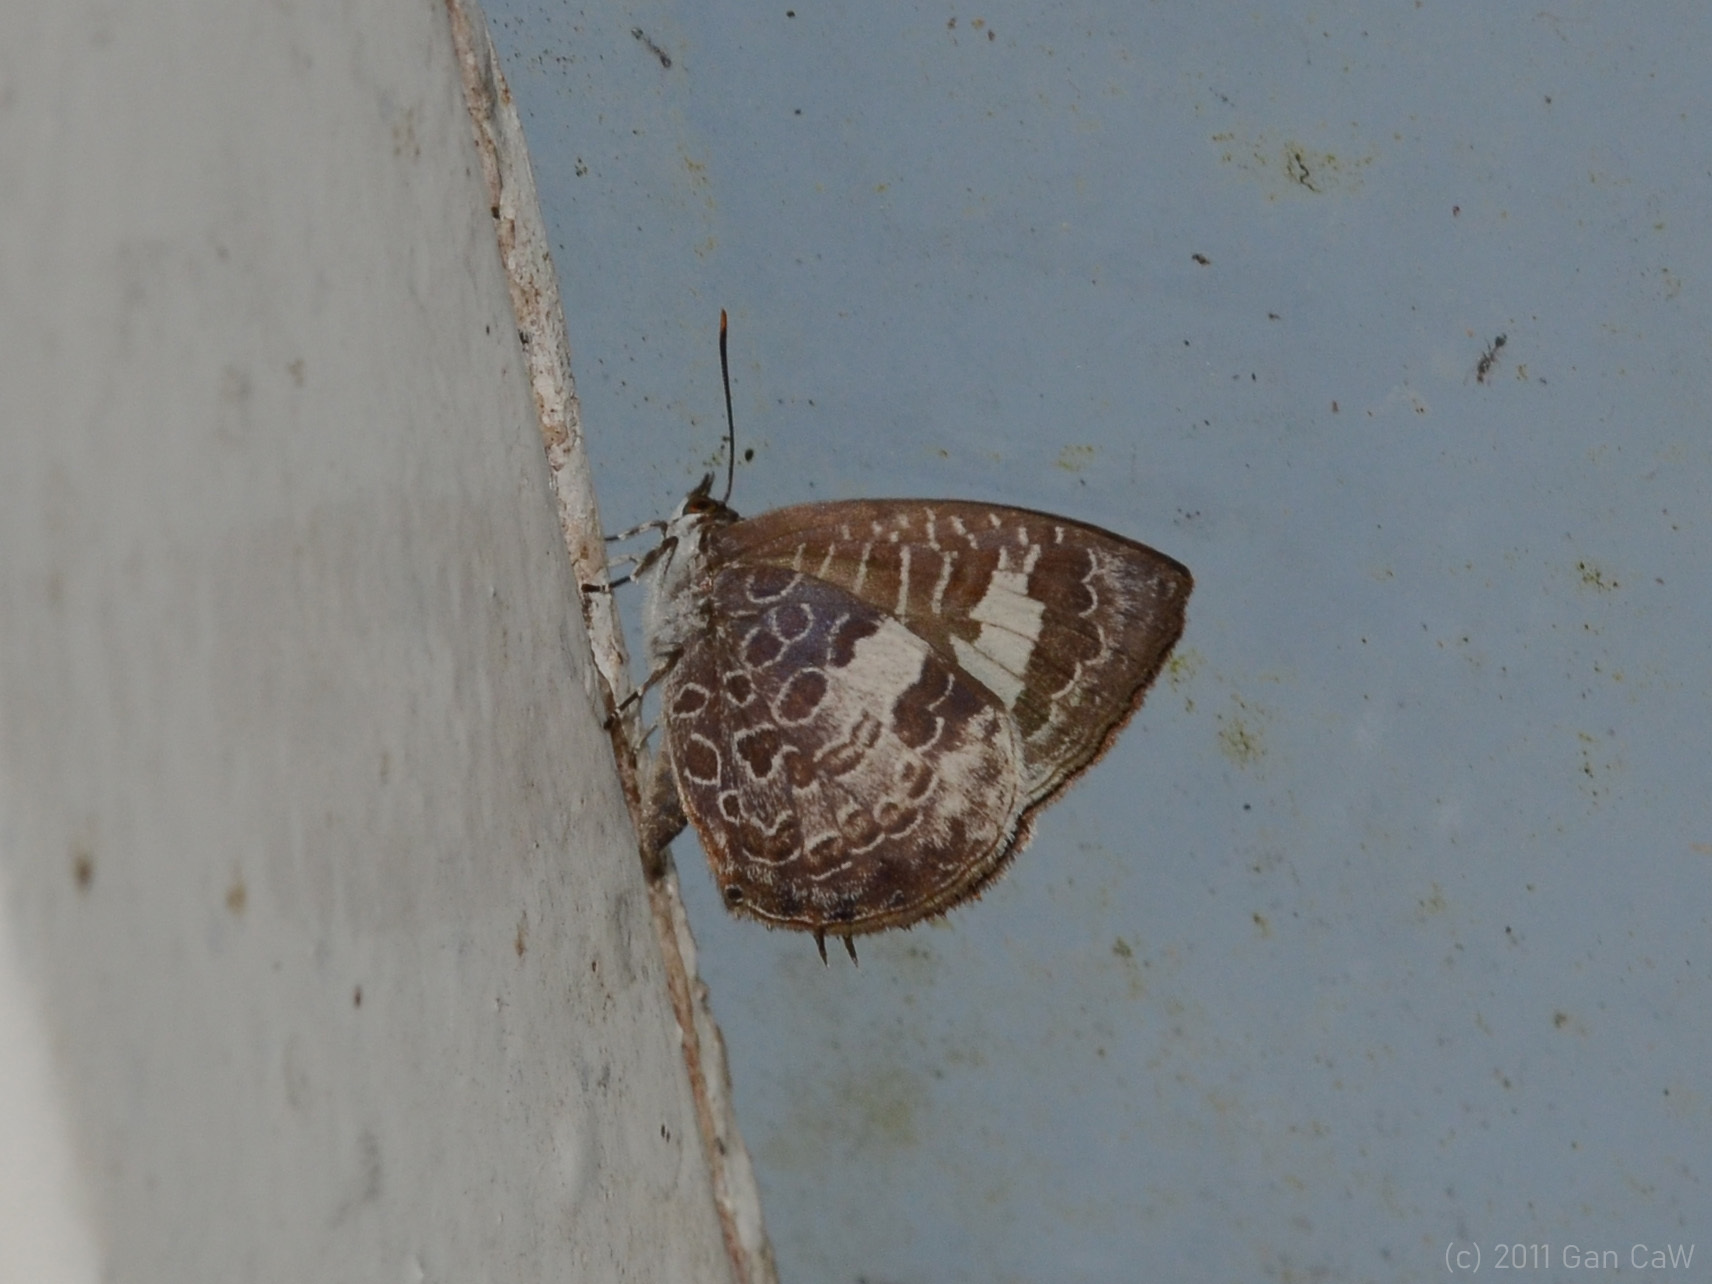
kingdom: Animalia
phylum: Arthropoda
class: Insecta
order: Lepidoptera
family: Lycaenidae
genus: Arhopala
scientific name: Arhopala paraganesa
